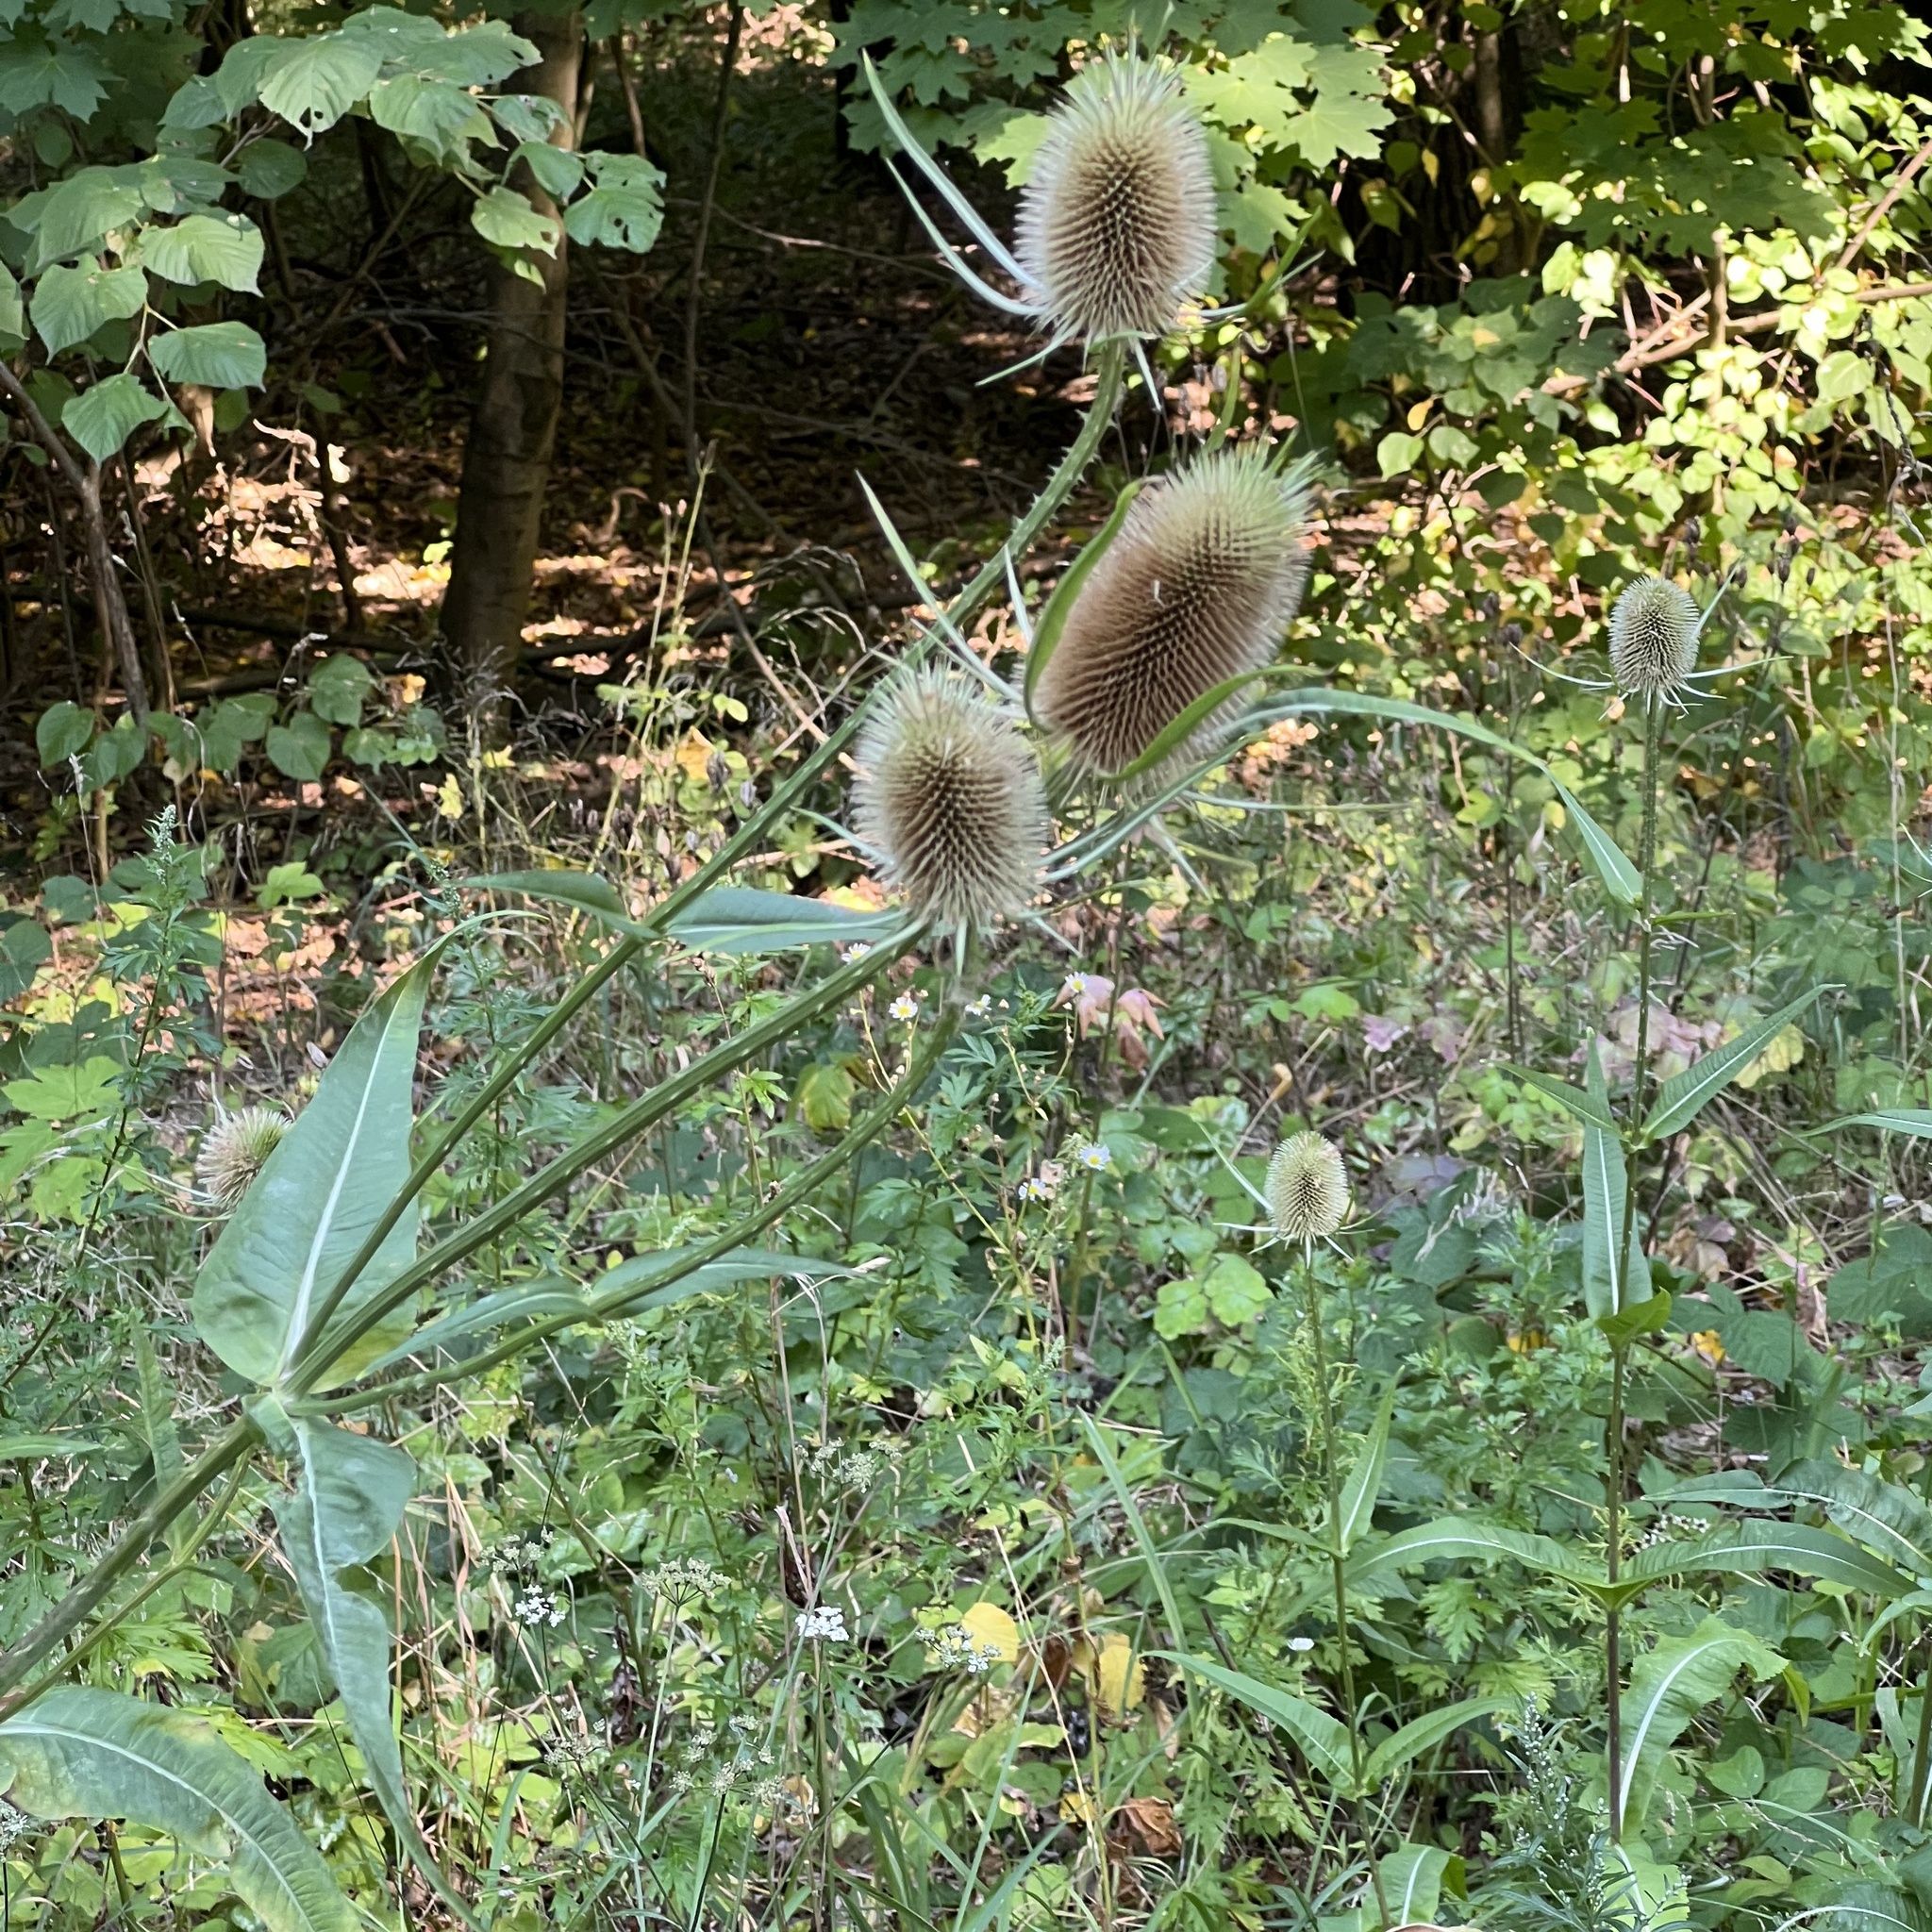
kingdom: Plantae
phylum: Tracheophyta
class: Magnoliopsida
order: Dipsacales
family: Caprifoliaceae
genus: Dipsacus
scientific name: Dipsacus fullonum
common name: Teasel
